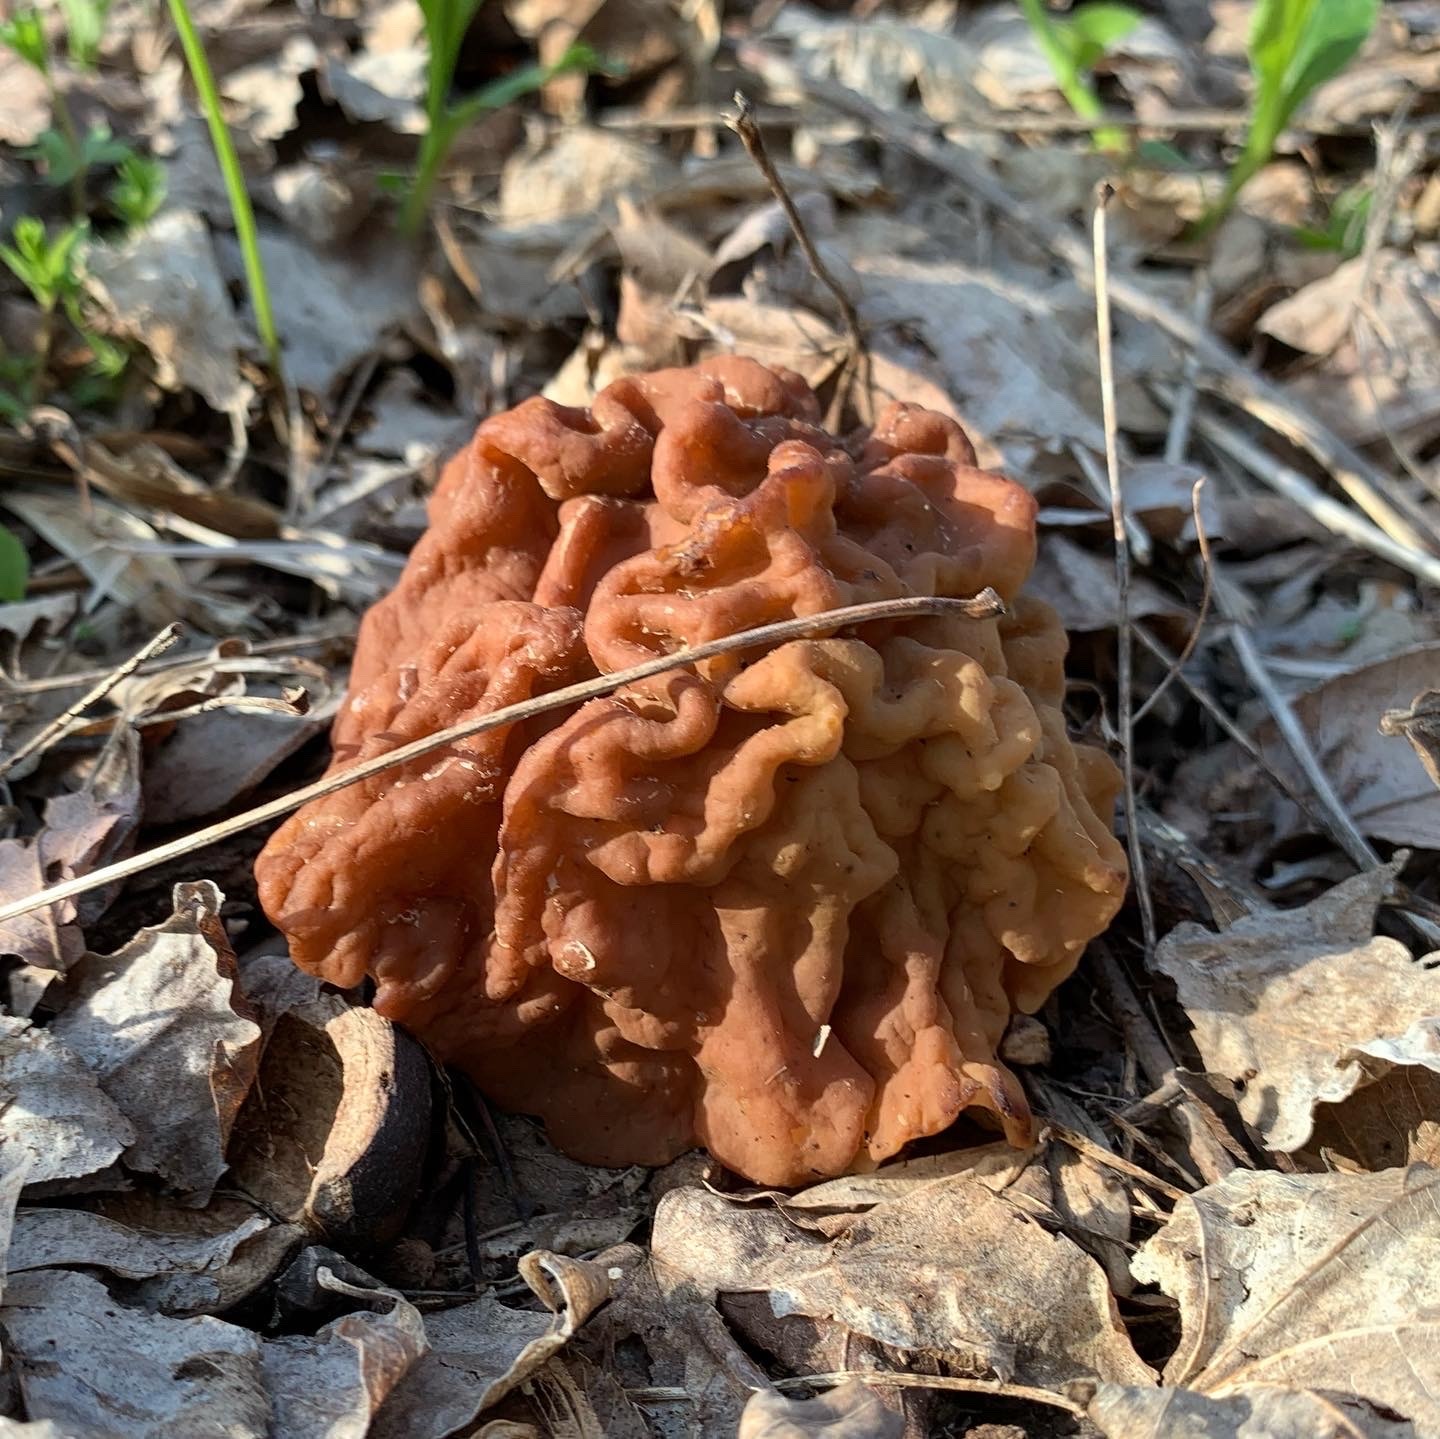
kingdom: Fungi
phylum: Ascomycota
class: Pezizomycetes
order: Pezizales
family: Discinaceae
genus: Gyromitra
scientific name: Gyromitra korfii
